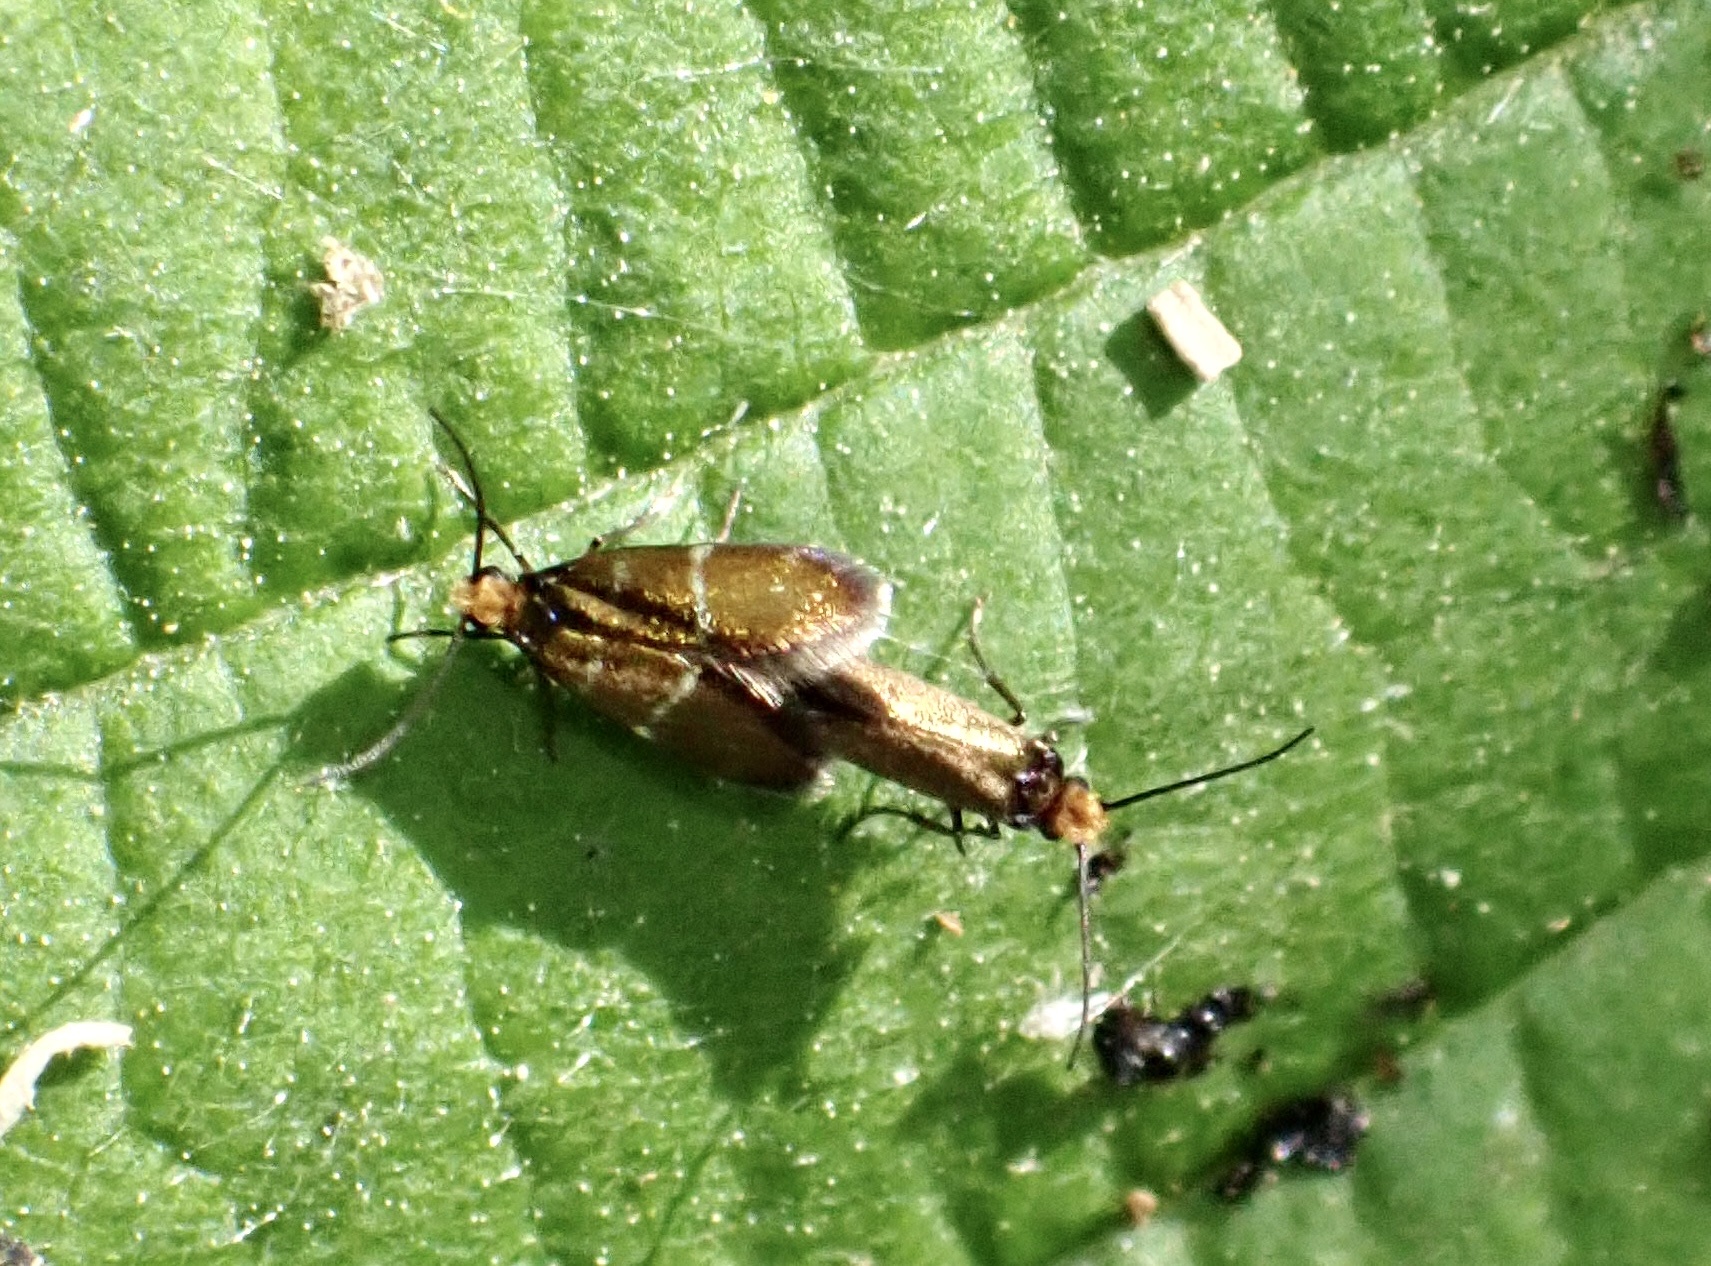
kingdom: Animalia
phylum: Arthropoda
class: Insecta
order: Lepidoptera
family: Micropterigidae
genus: Micropterix
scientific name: Micropterix aruncella
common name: White-barred gold
